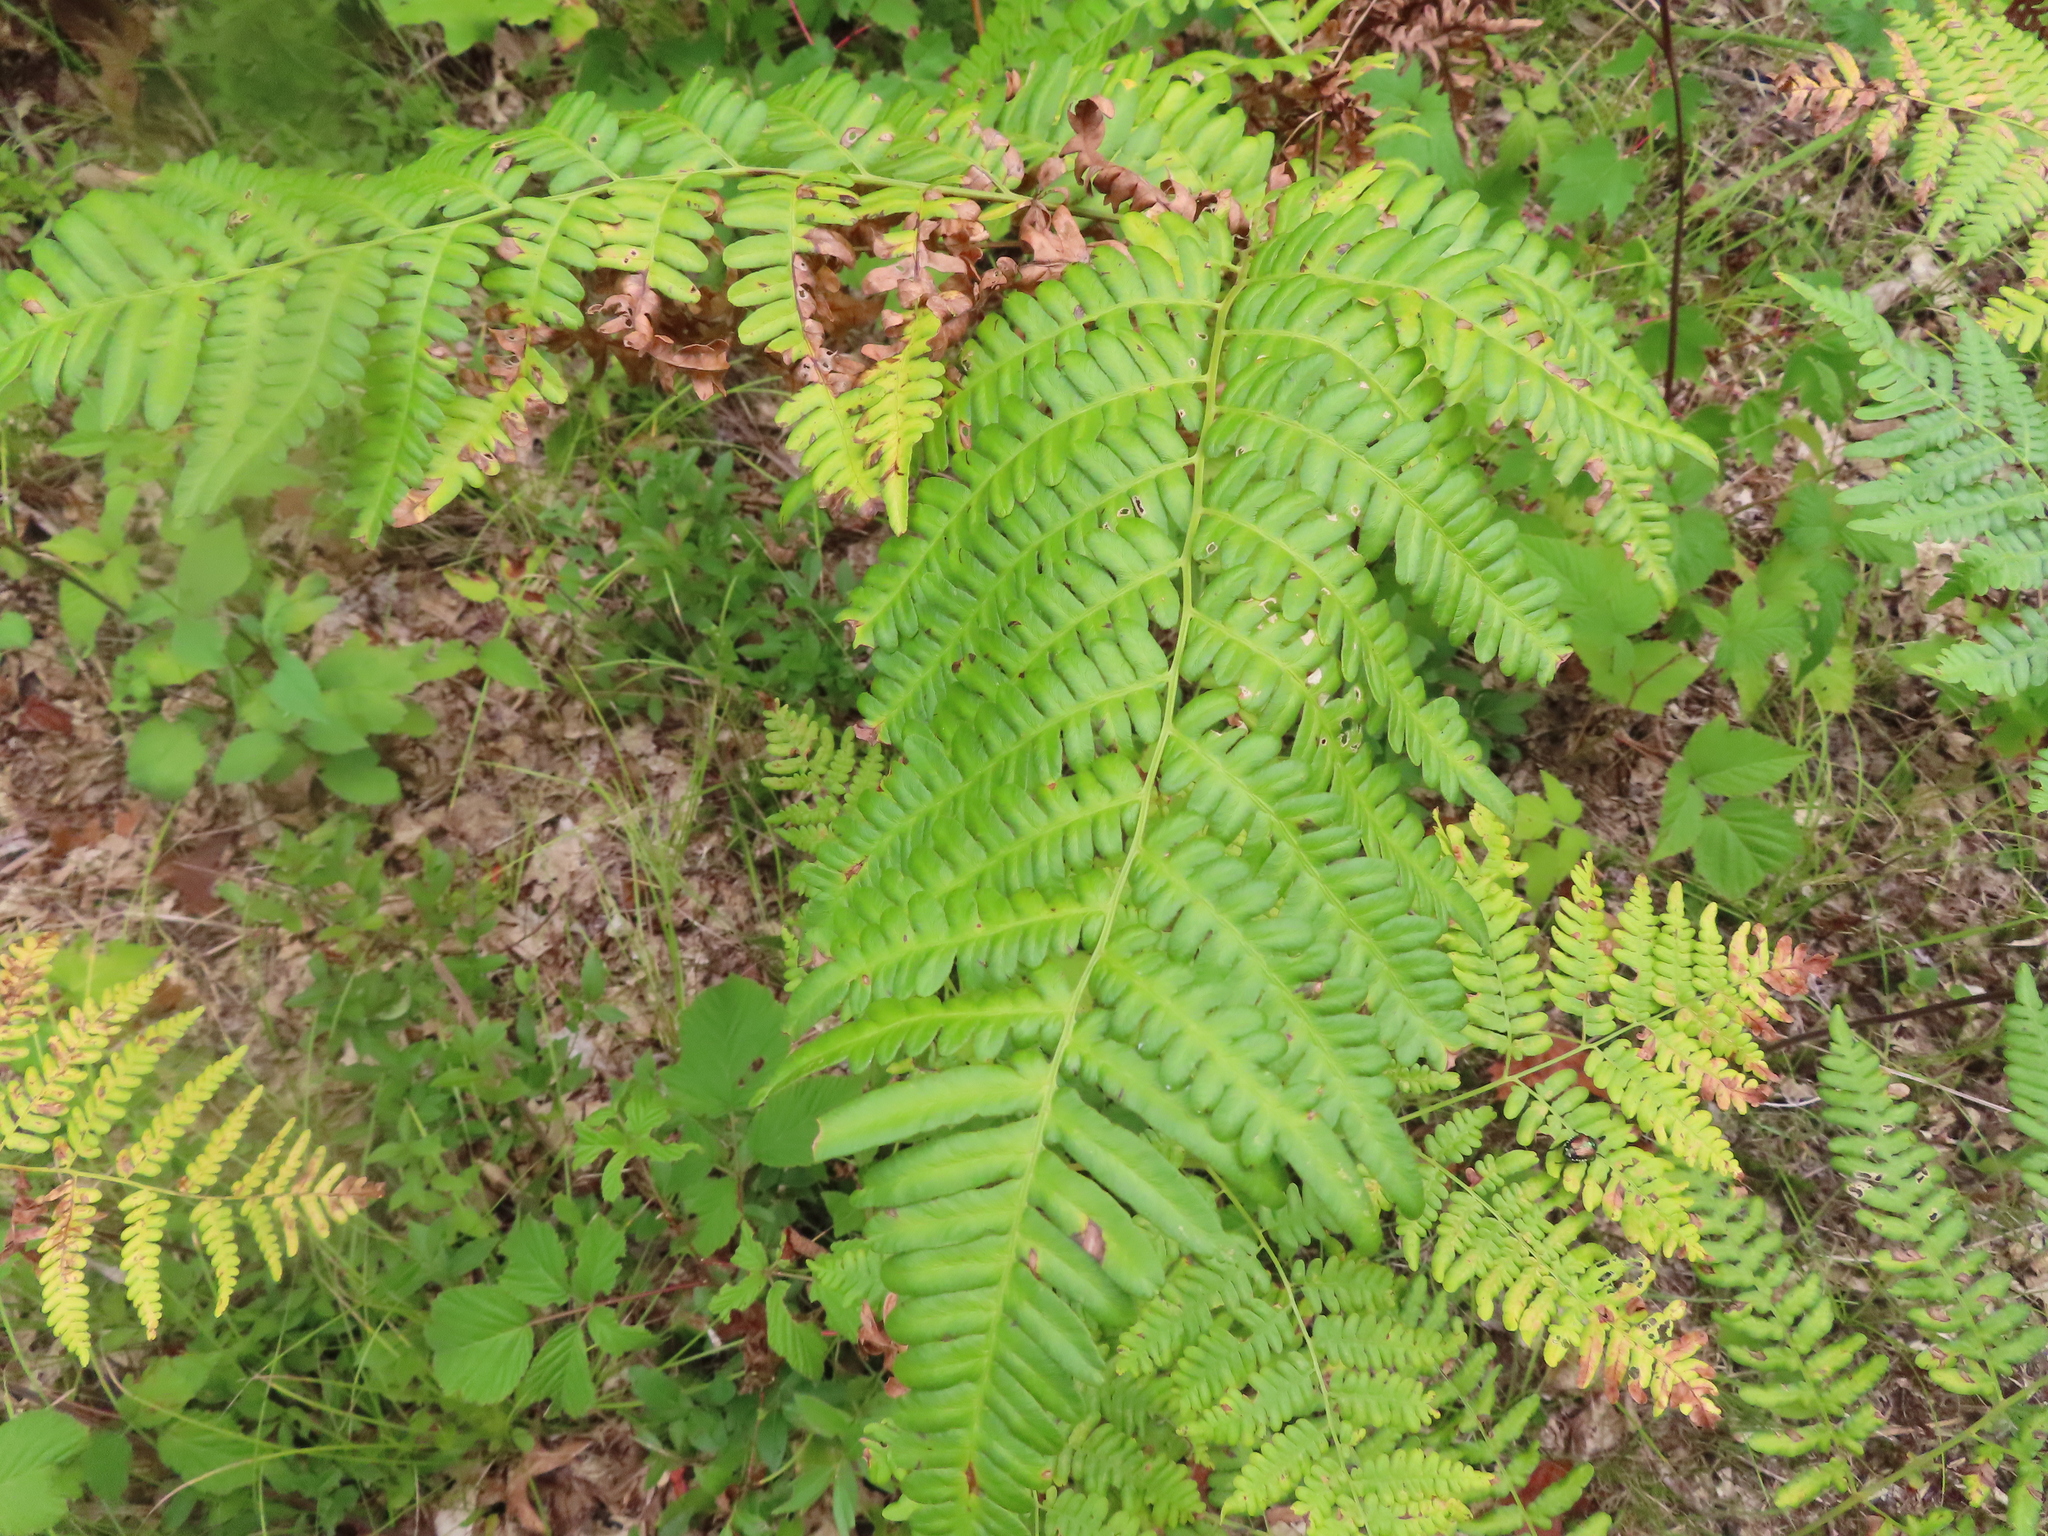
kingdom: Plantae
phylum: Tracheophyta
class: Polypodiopsida
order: Polypodiales
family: Dennstaedtiaceae
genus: Pteridium
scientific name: Pteridium aquilinum
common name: Bracken
